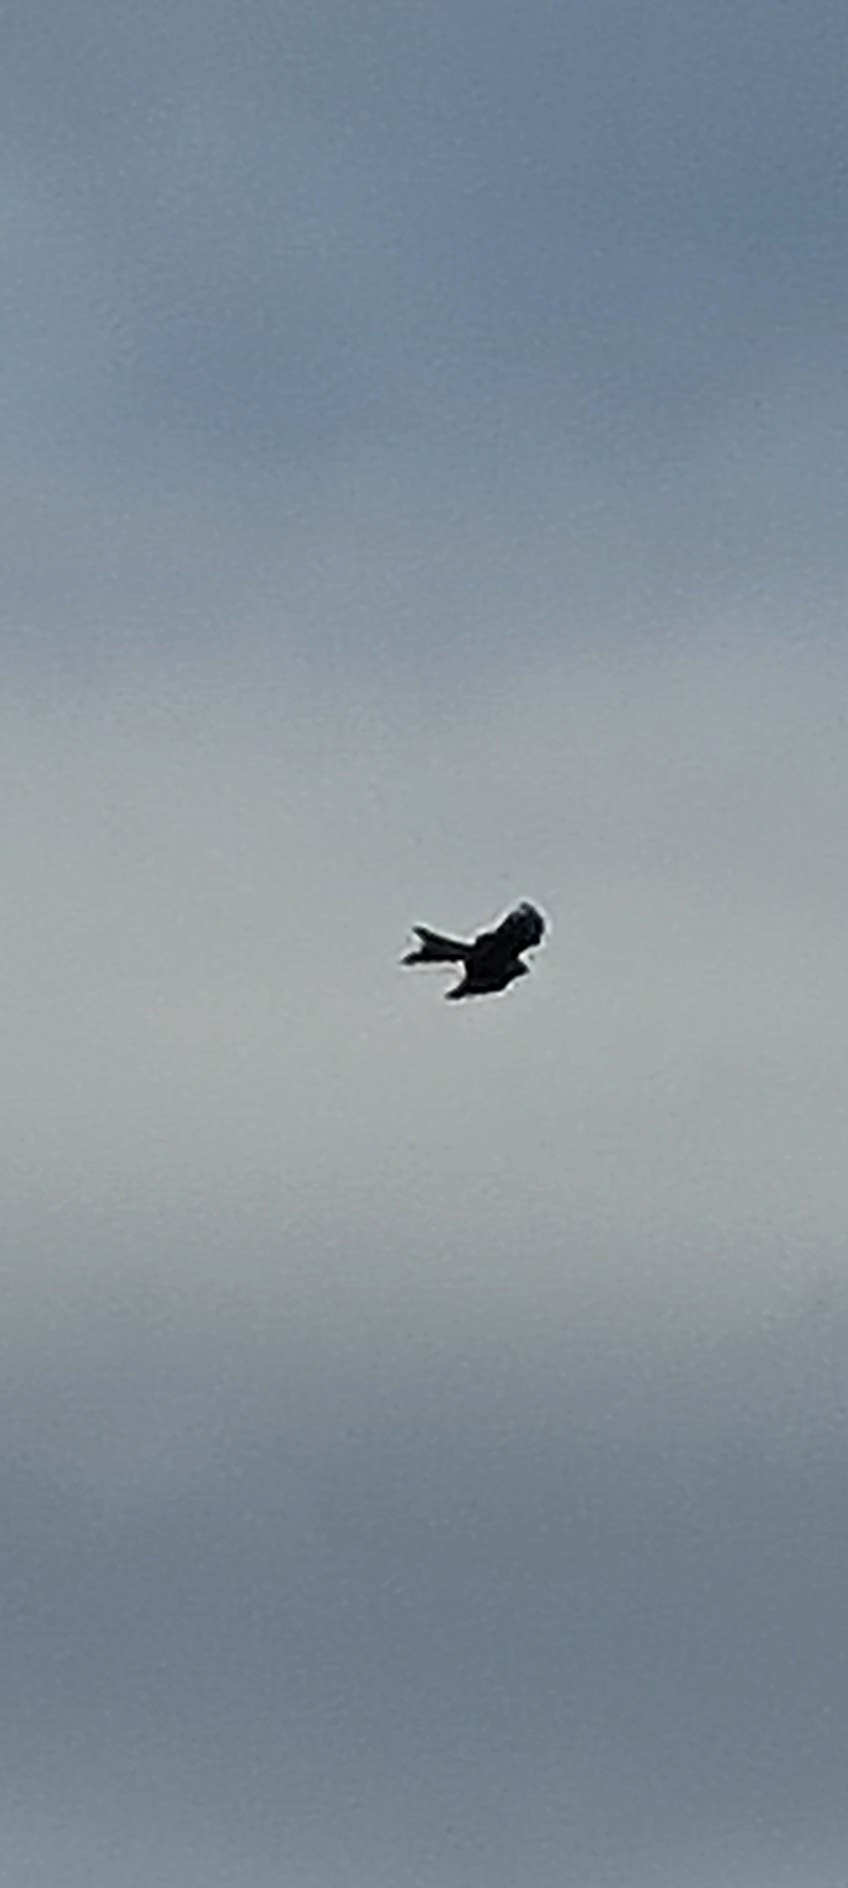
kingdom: Animalia
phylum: Chordata
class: Aves
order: Accipitriformes
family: Accipitridae
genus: Milvus
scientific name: Milvus milvus
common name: Red kite
